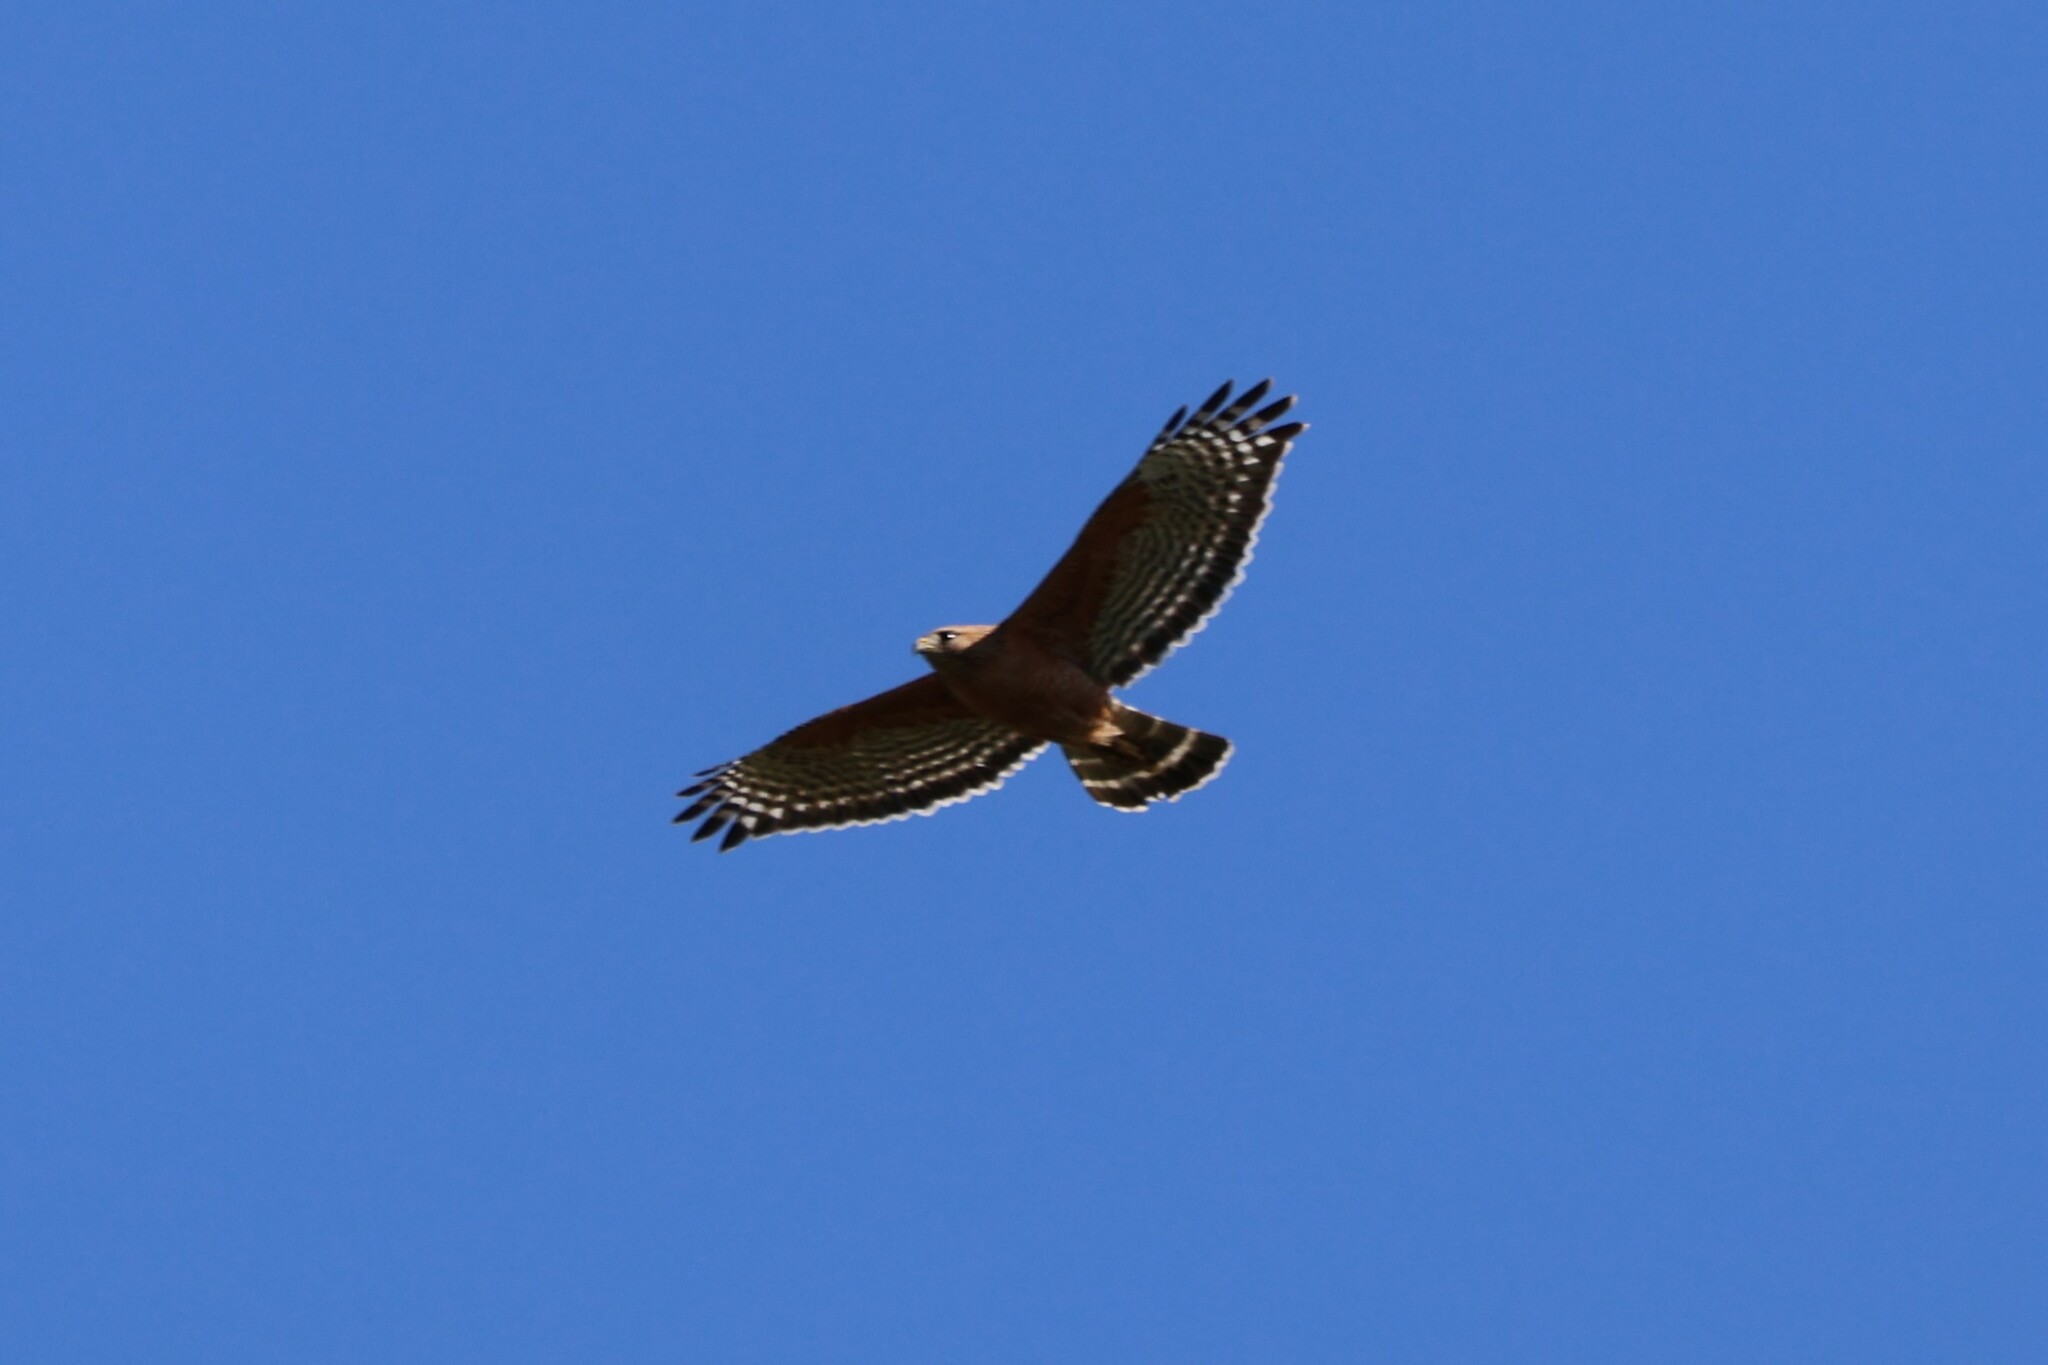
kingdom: Animalia
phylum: Chordata
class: Aves
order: Accipitriformes
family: Accipitridae
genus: Buteo
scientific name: Buteo lineatus
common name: Red-shouldered hawk
